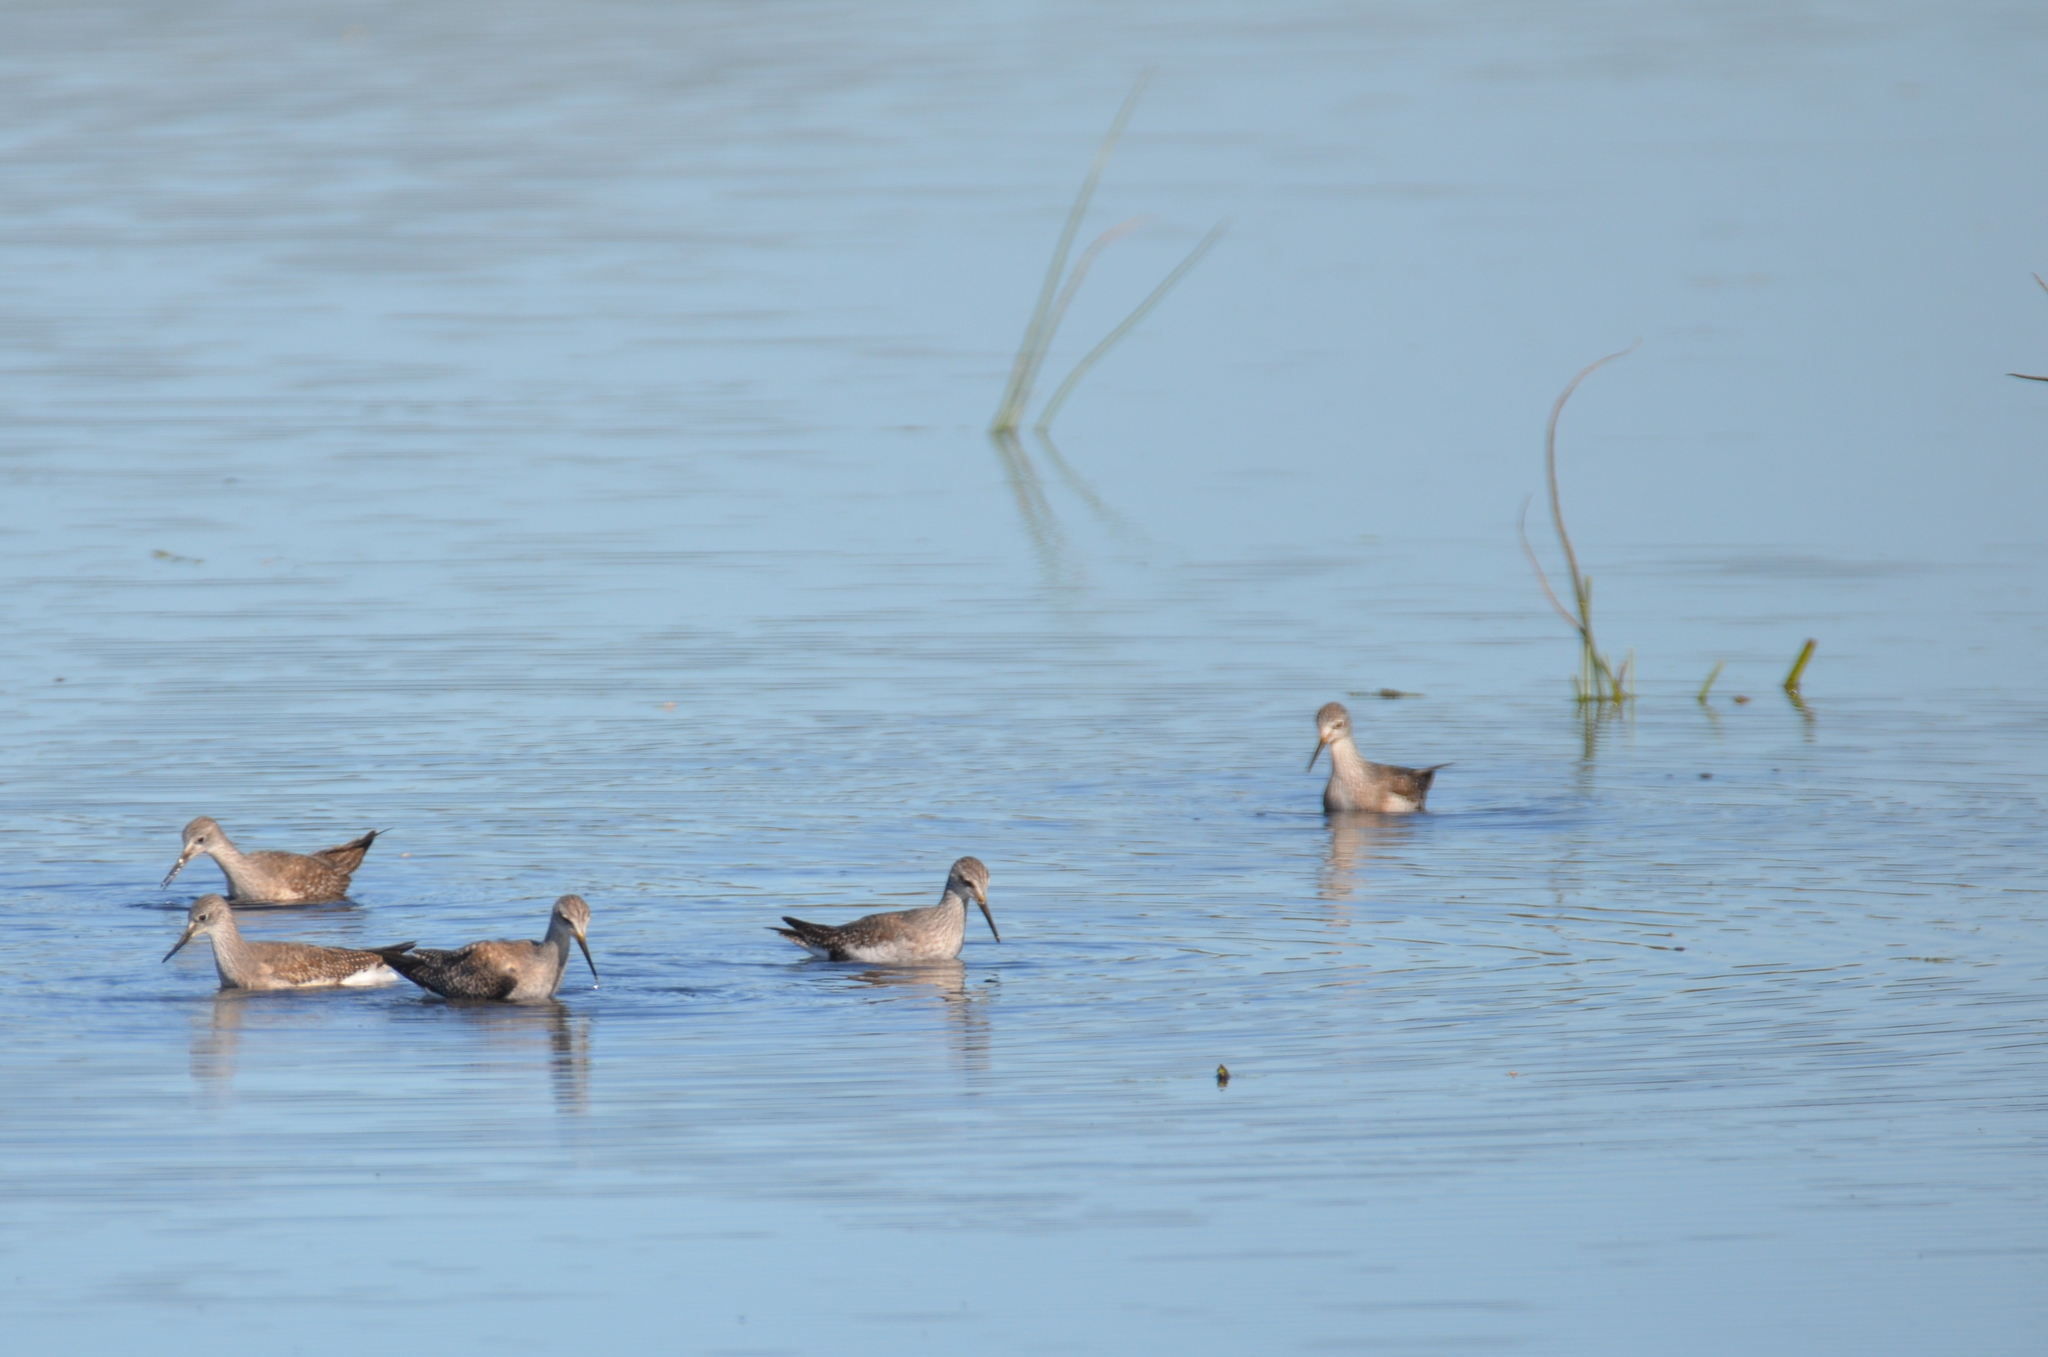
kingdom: Animalia
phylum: Chordata
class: Aves
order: Charadriiformes
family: Scolopacidae
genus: Tringa
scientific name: Tringa flavipes
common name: Lesser yellowlegs
